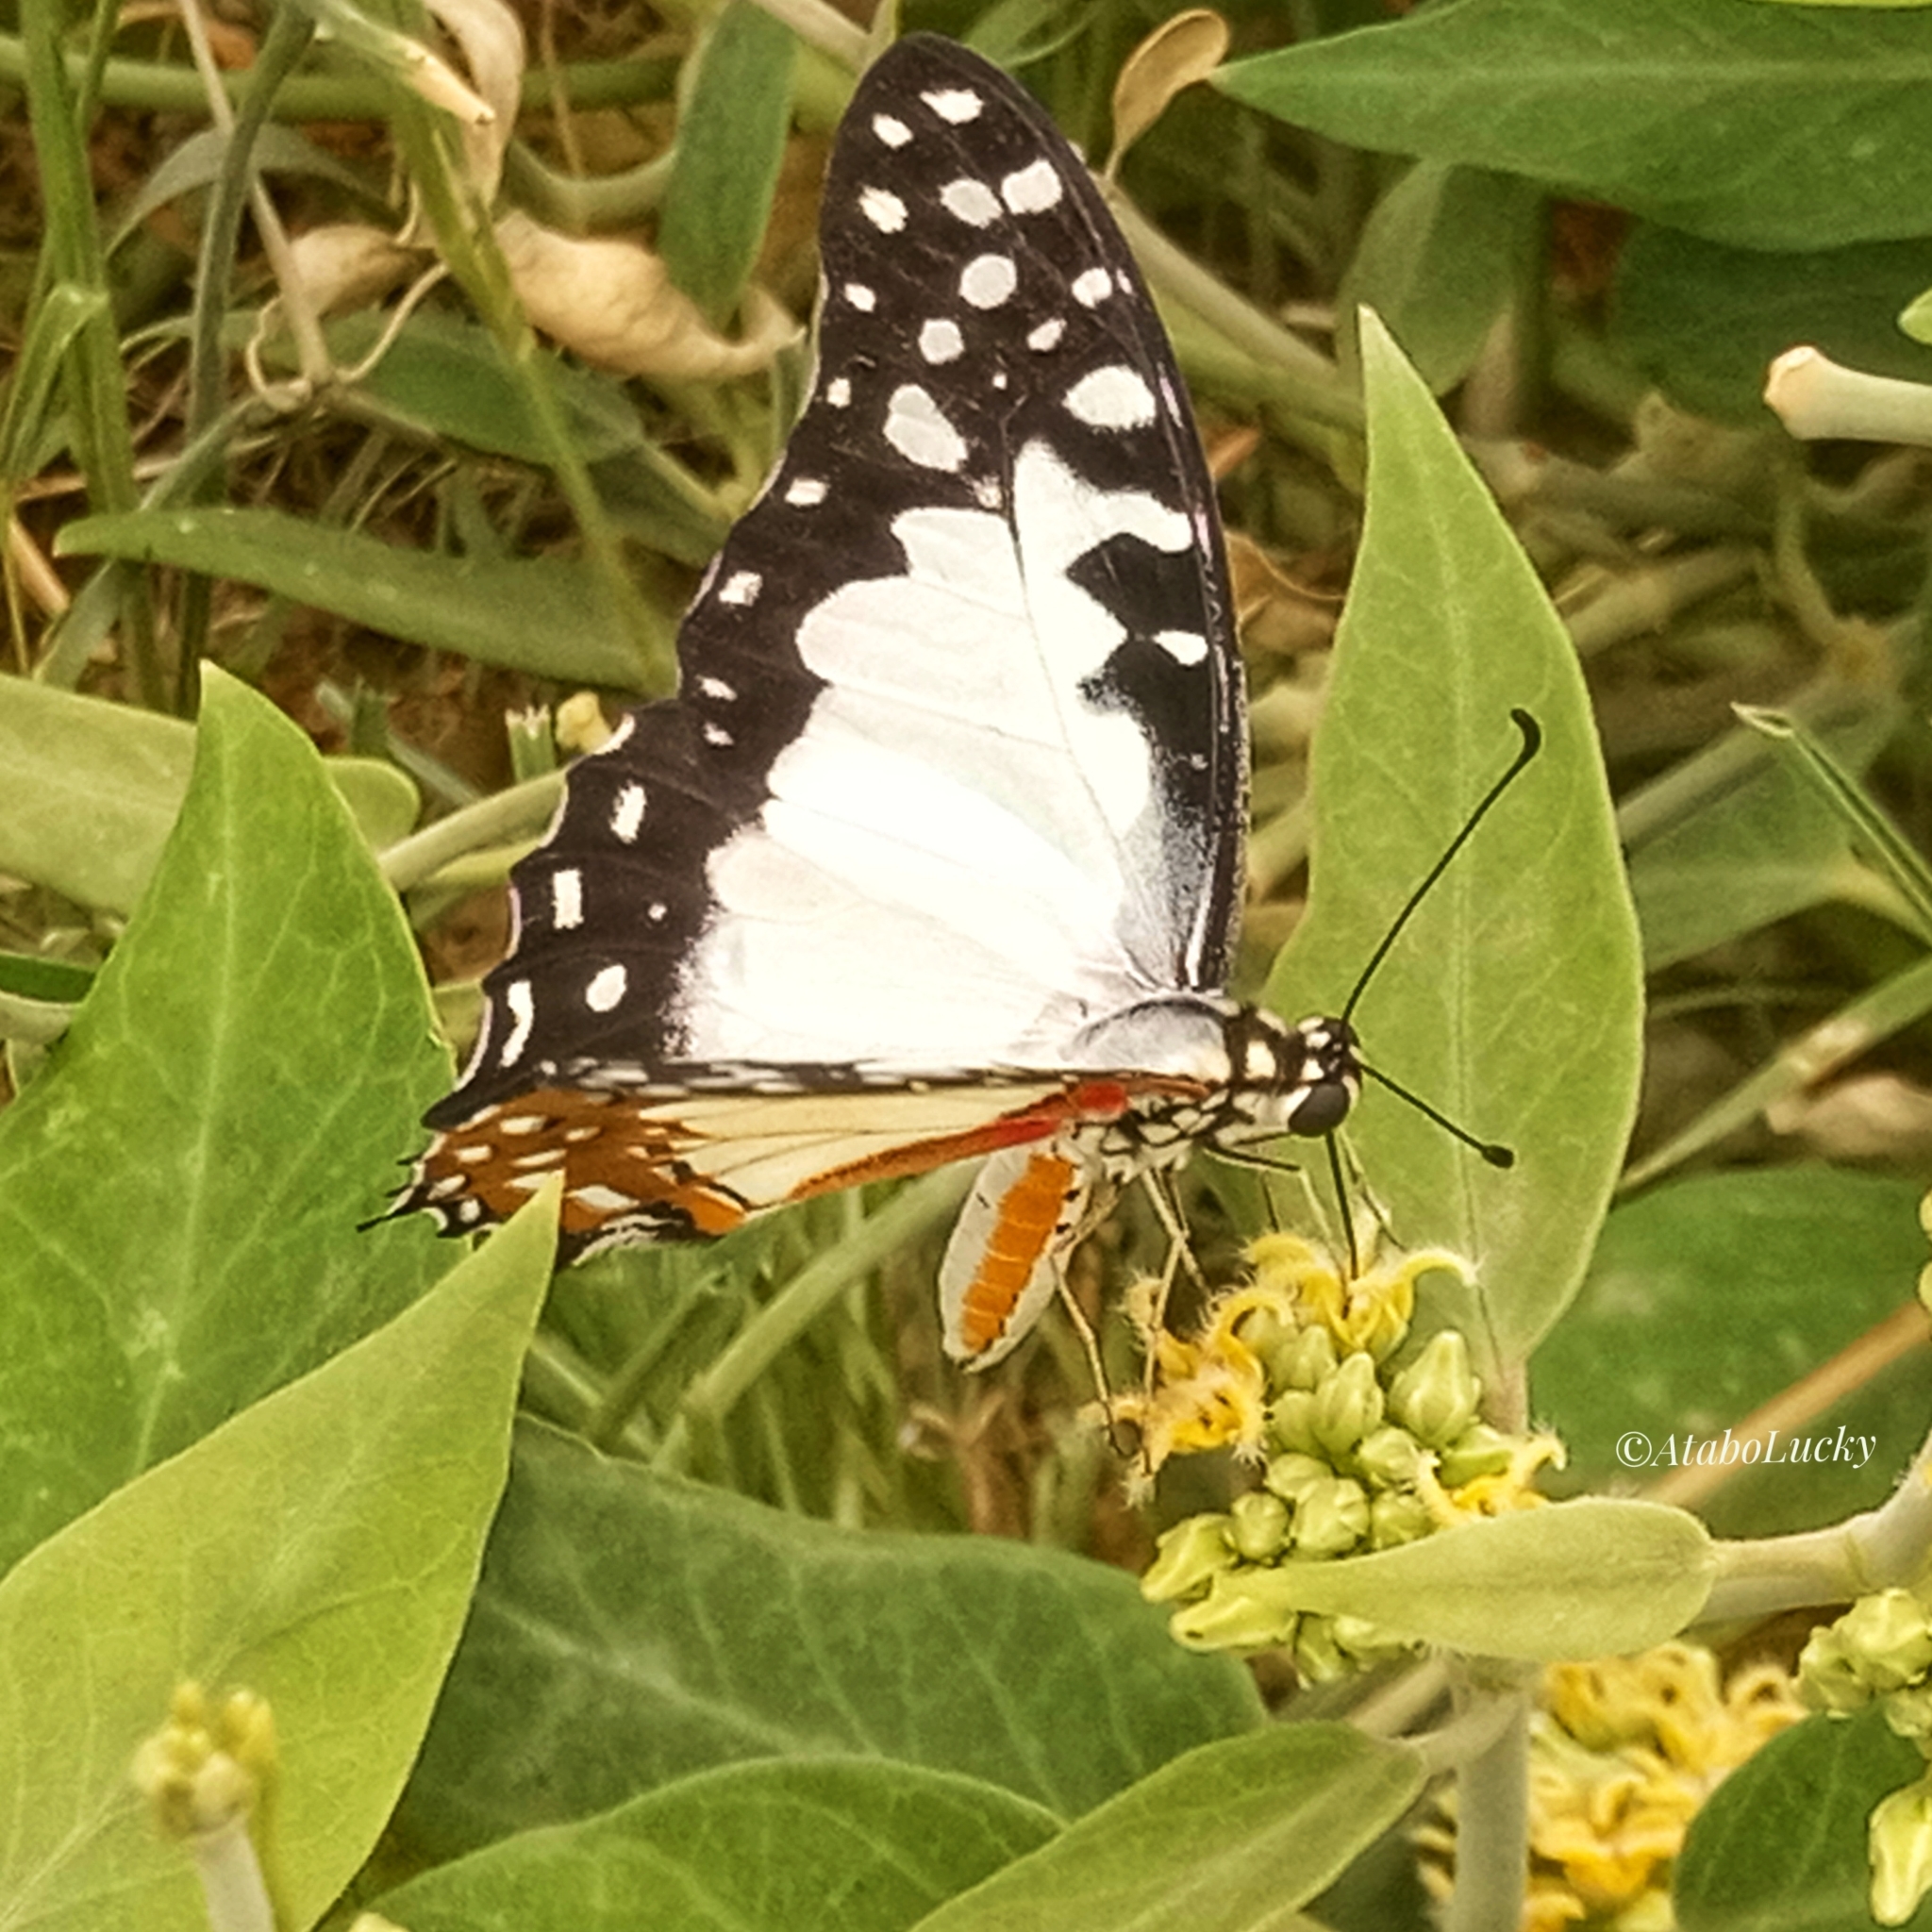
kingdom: Animalia
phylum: Arthropoda
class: Insecta
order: Lepidoptera
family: Papilionidae
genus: Graphium
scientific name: Graphium angolanus
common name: Angola white-lady swordtail
